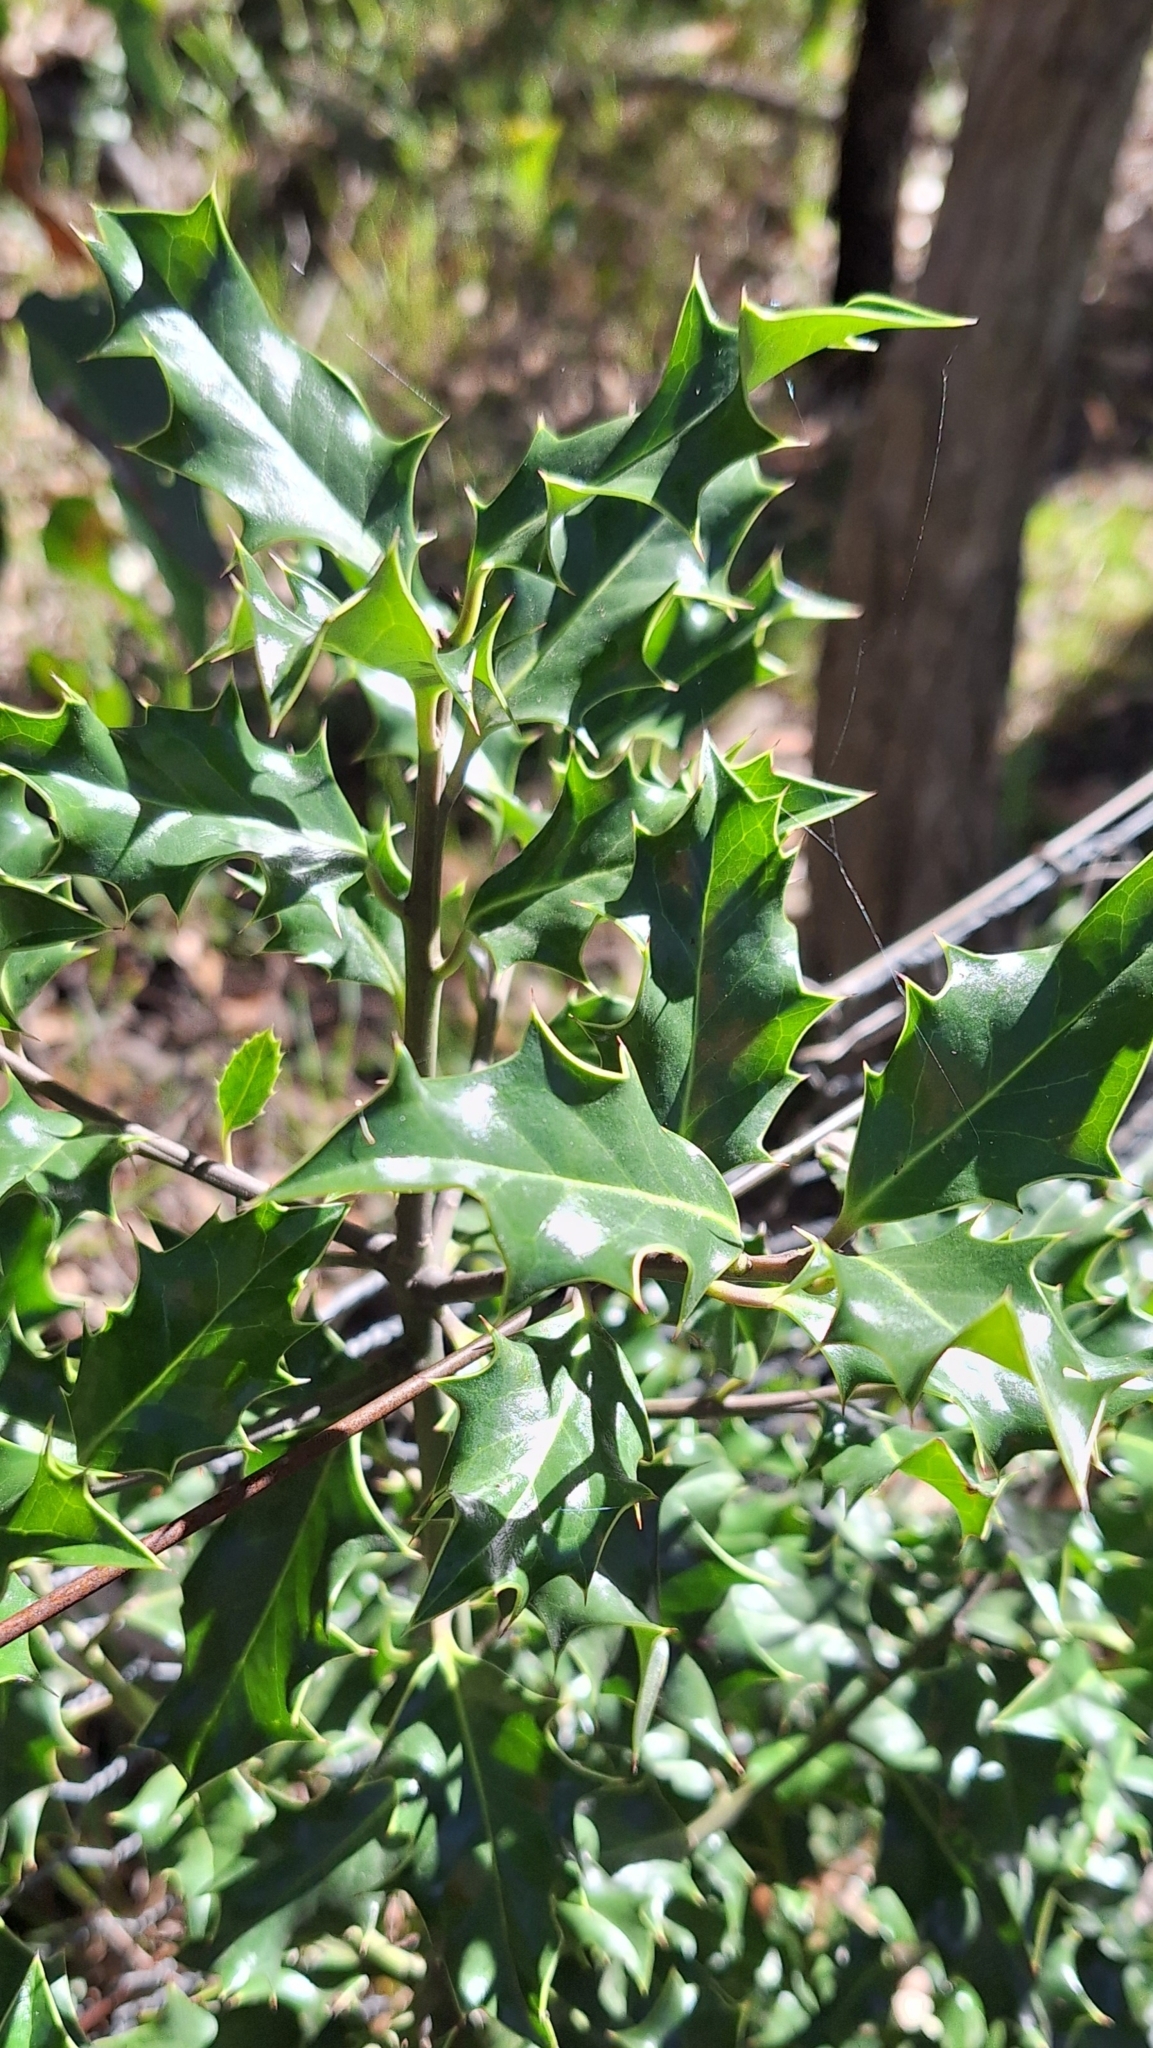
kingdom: Plantae
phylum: Tracheophyta
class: Magnoliopsida
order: Aquifoliales
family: Aquifoliaceae
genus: Ilex
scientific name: Ilex aquifolium
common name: English holly
